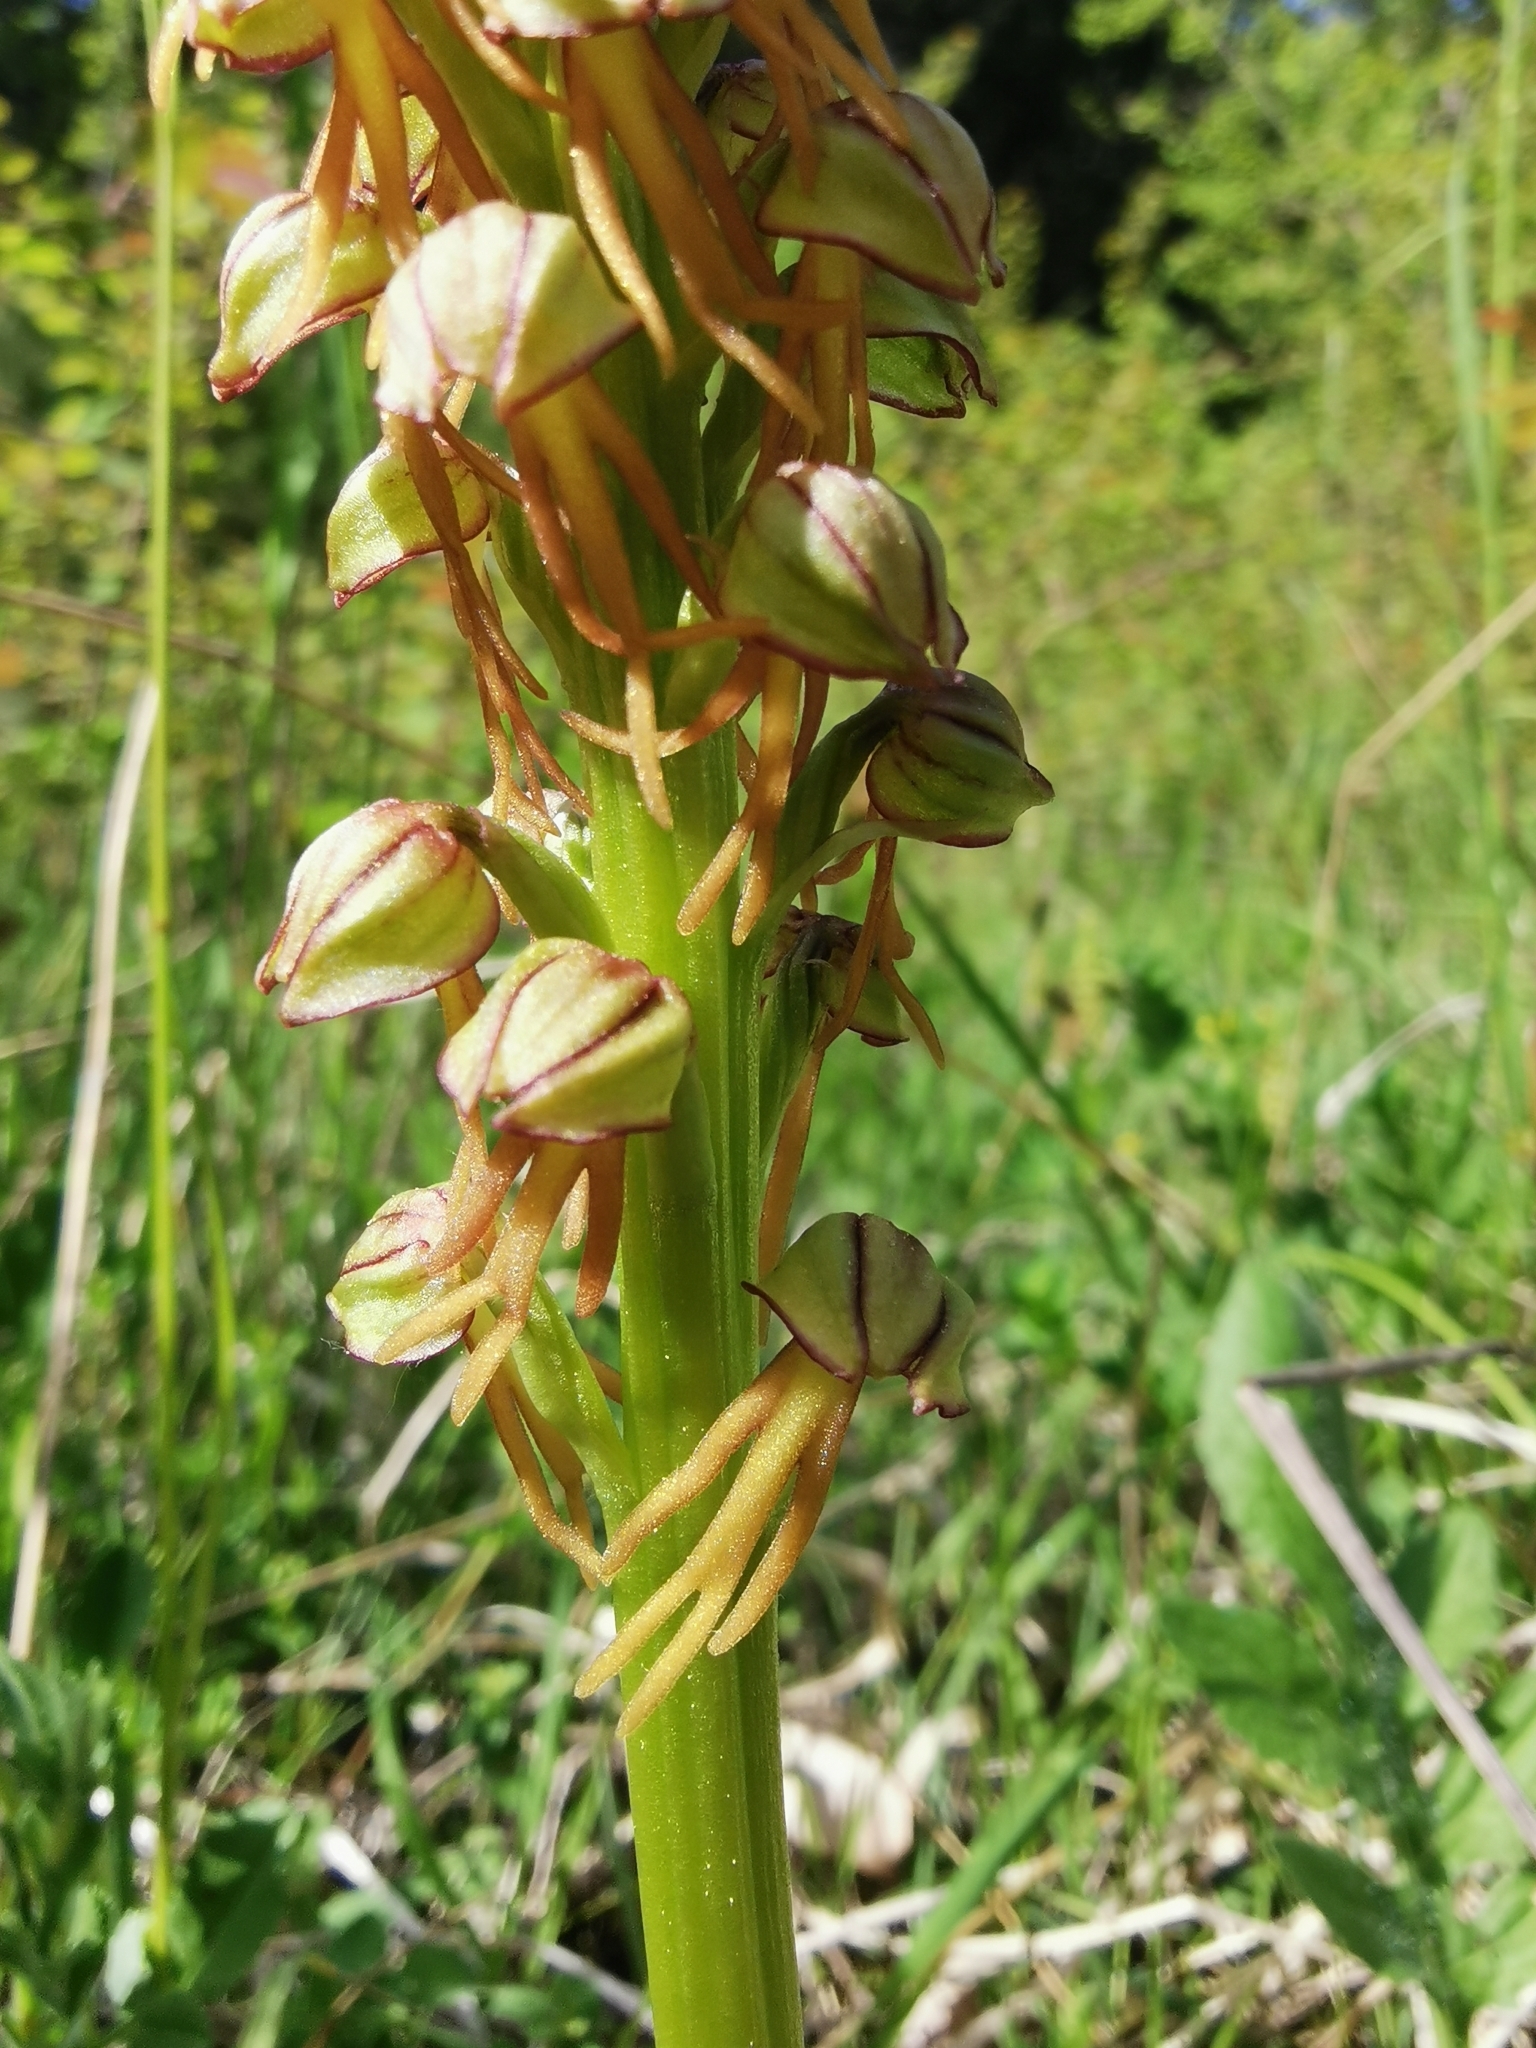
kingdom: Plantae
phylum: Tracheophyta
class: Liliopsida
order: Asparagales
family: Orchidaceae
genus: Orchis
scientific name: Orchis anthropophora
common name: Man orchid
